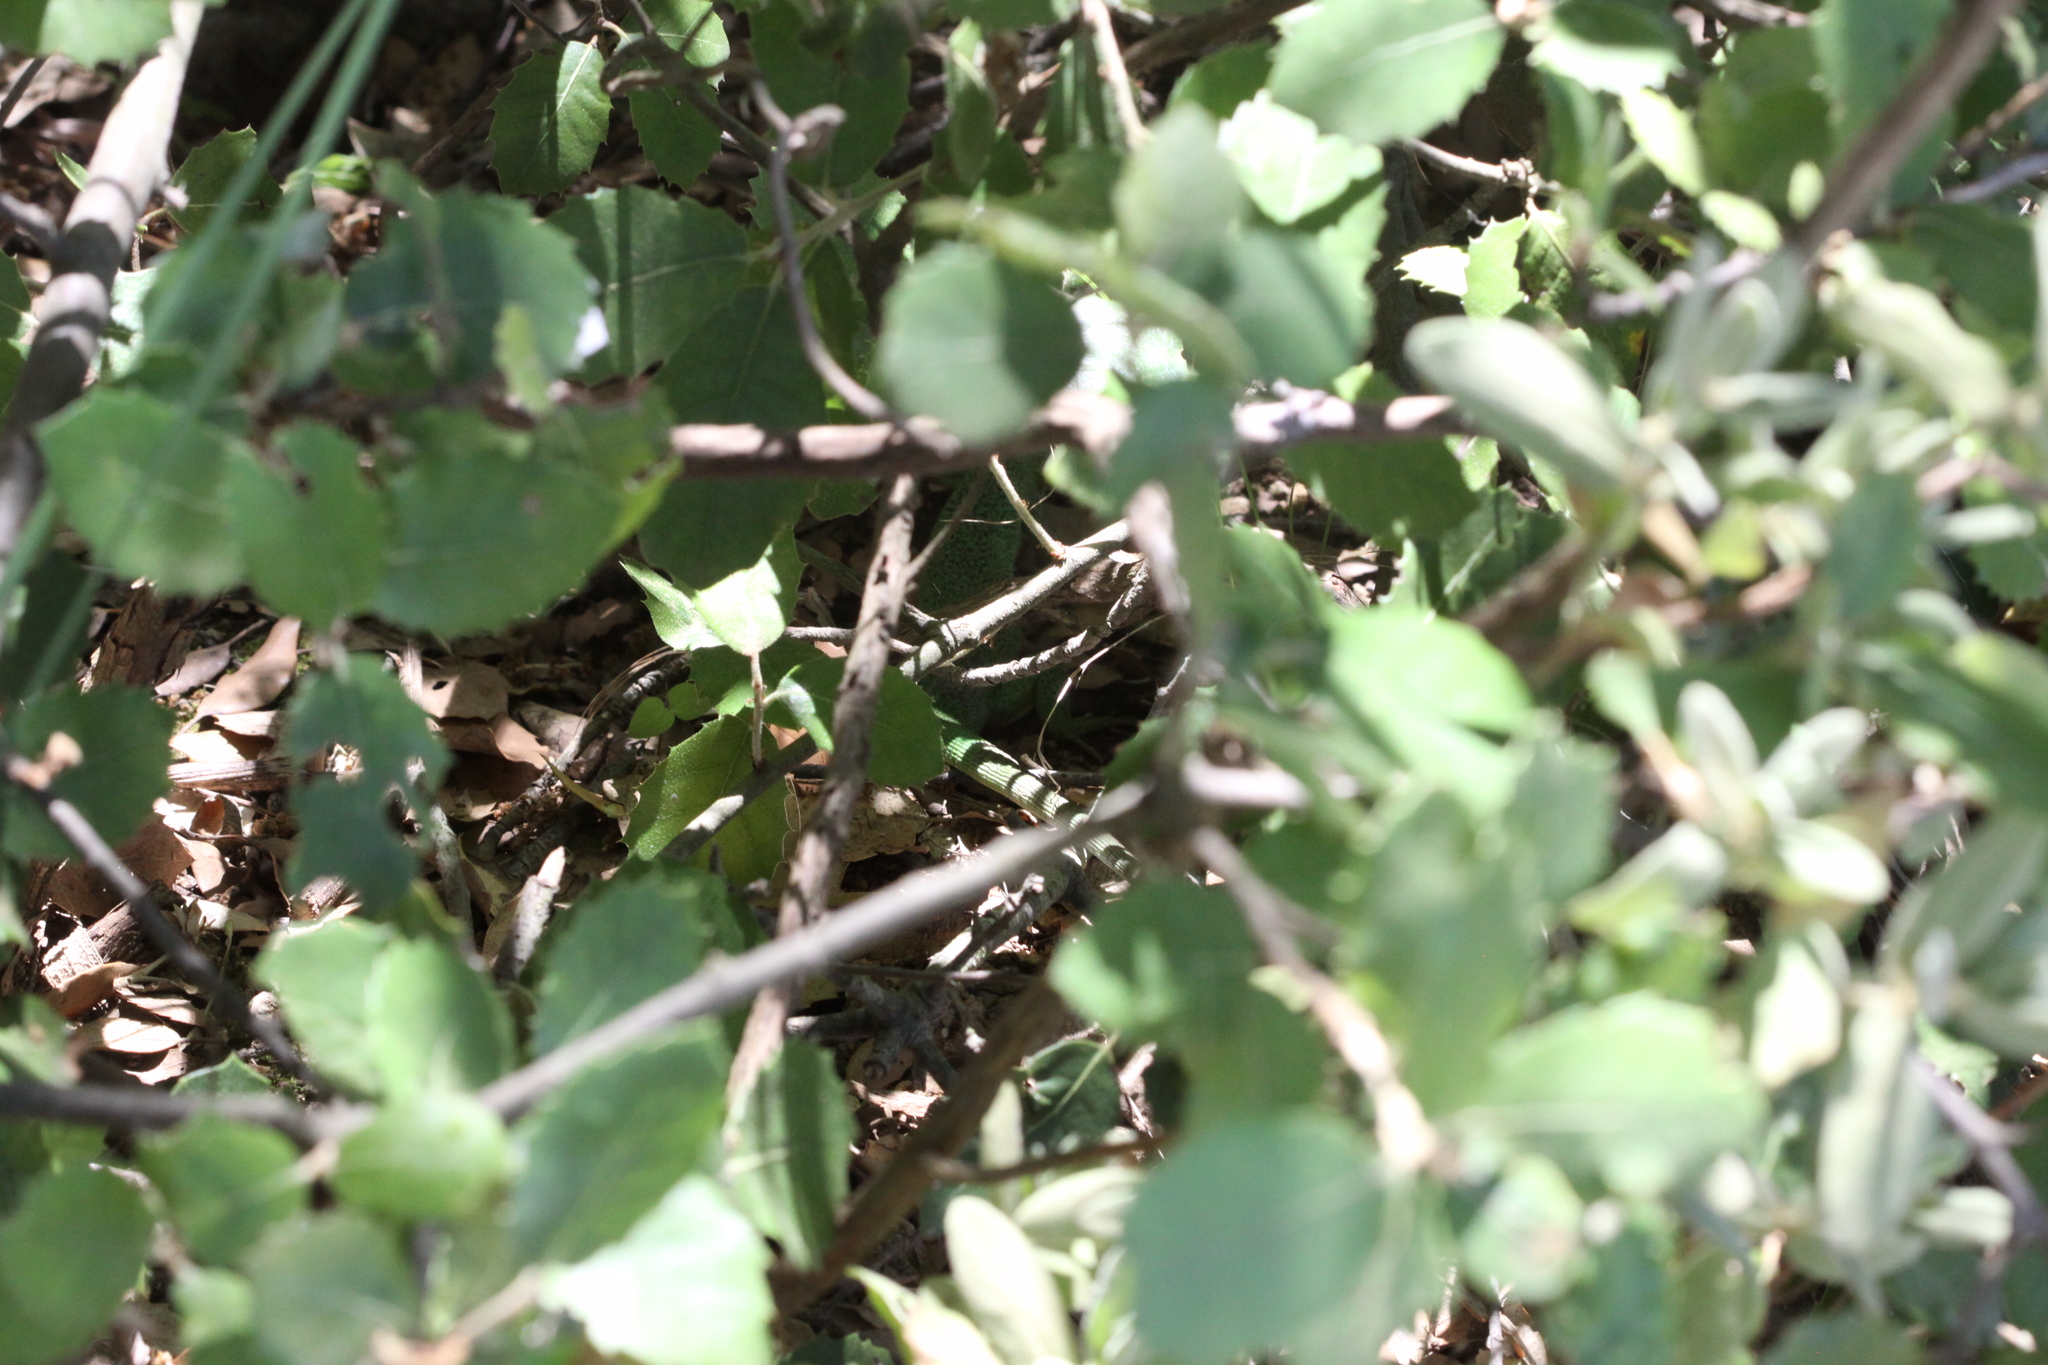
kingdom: Animalia
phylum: Chordata
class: Squamata
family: Lacertidae
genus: Lacerta
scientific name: Lacerta bilineata
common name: Western green lizard
